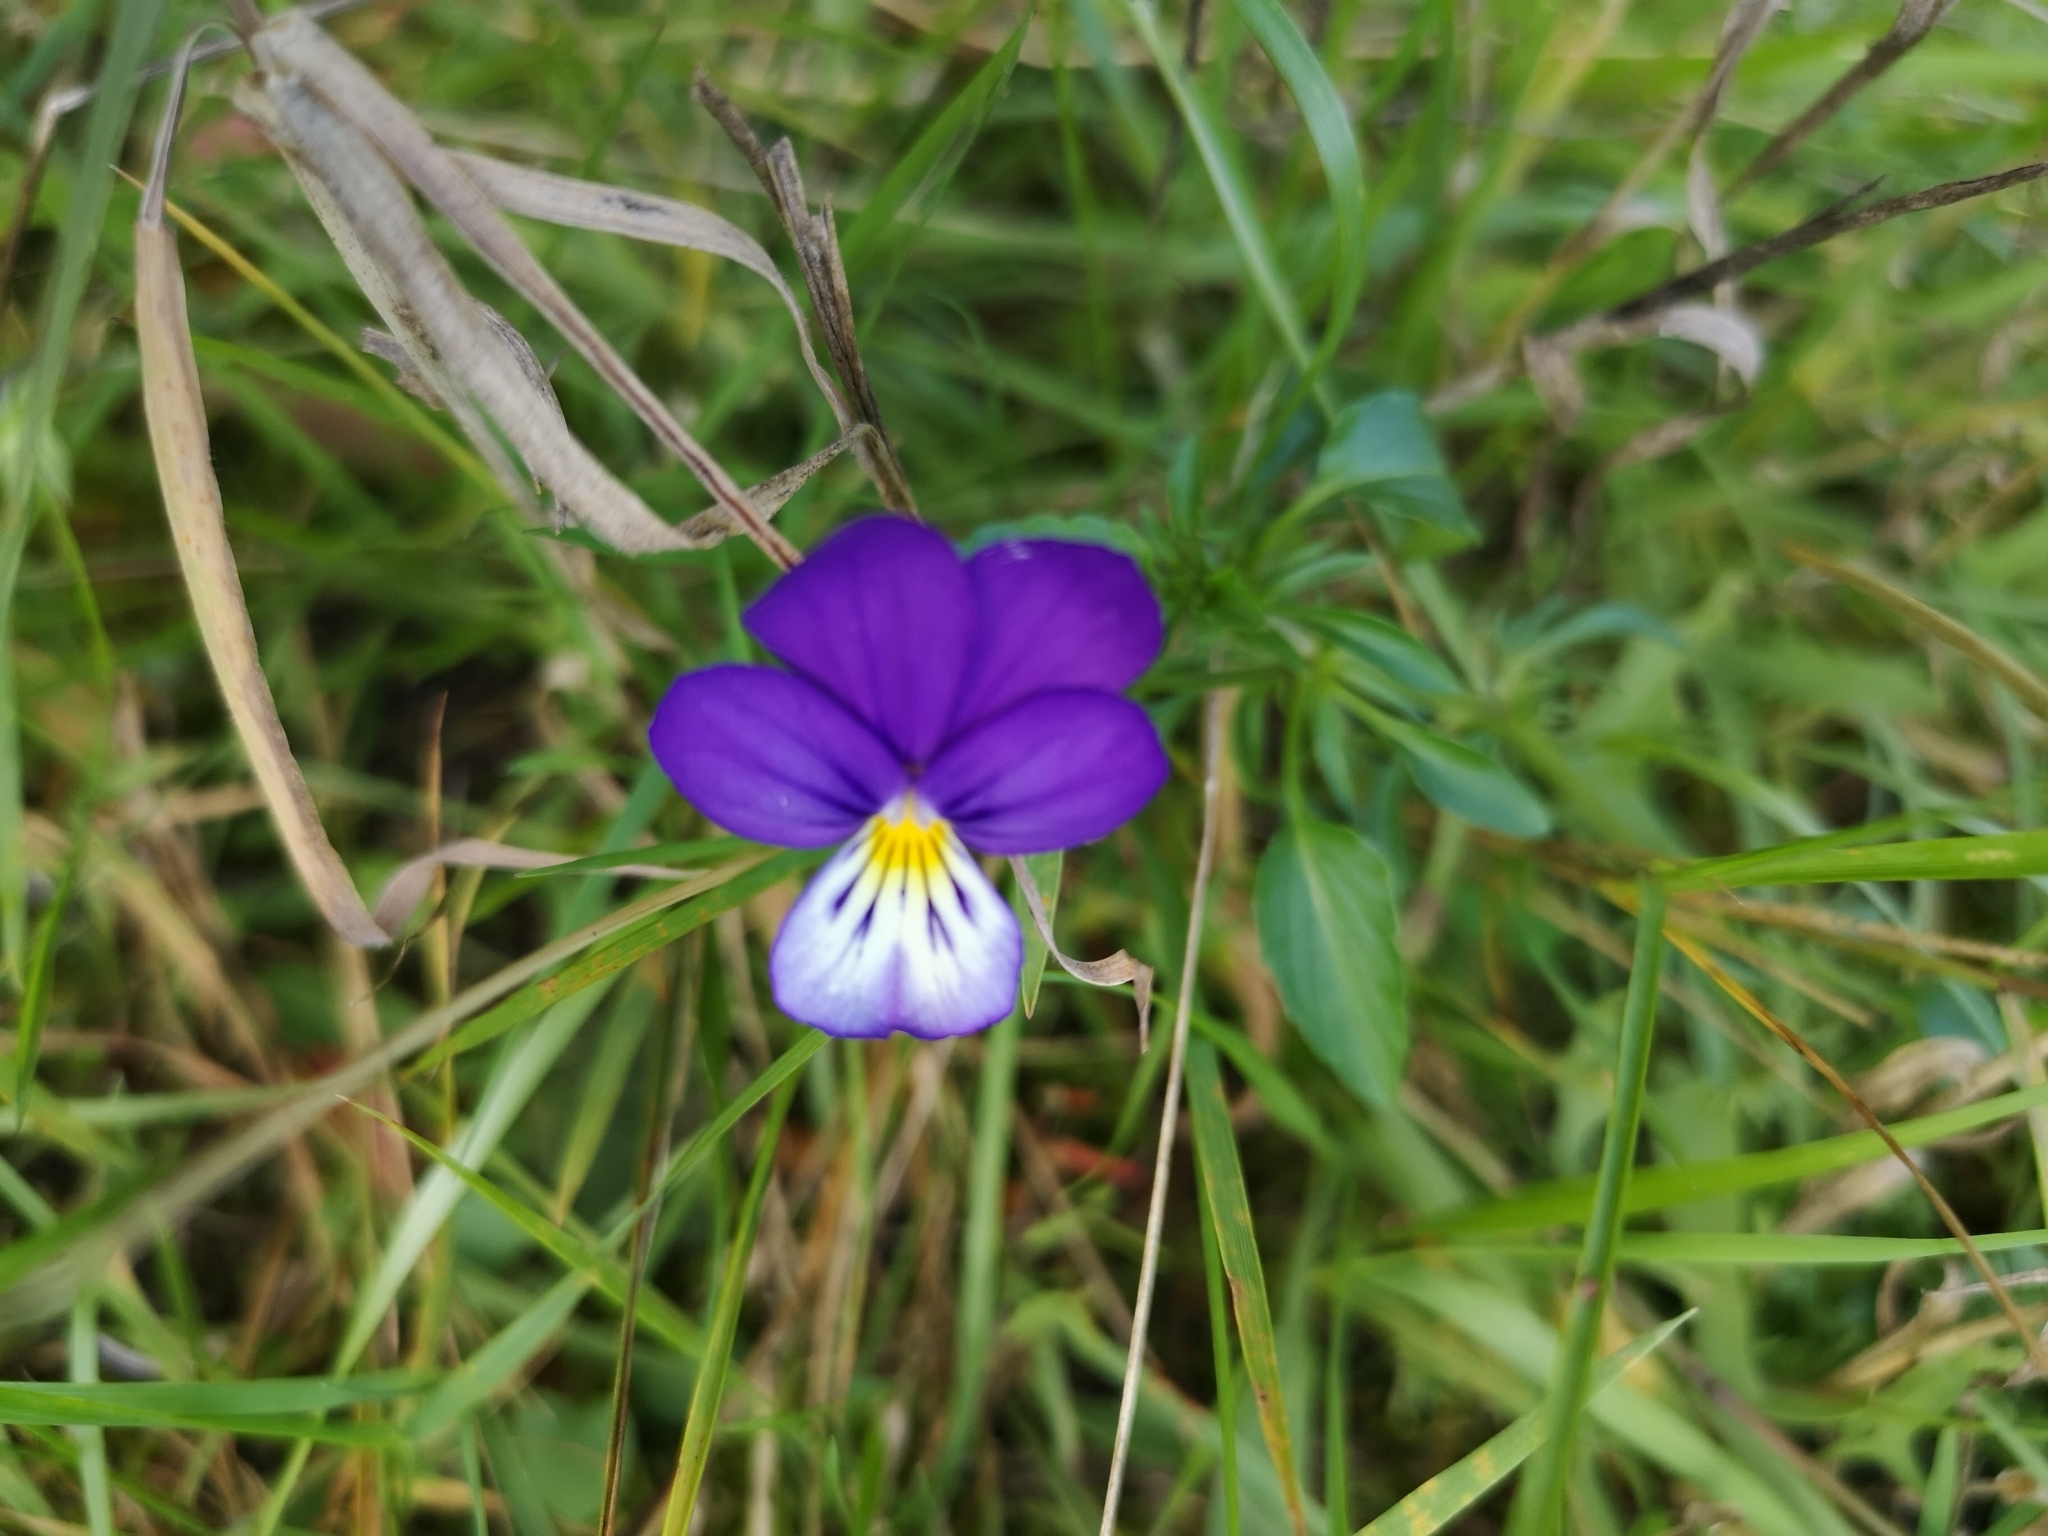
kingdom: Plantae
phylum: Tracheophyta
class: Magnoliopsida
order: Malpighiales
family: Violaceae
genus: Viola
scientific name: Viola tricolor
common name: Pansy
